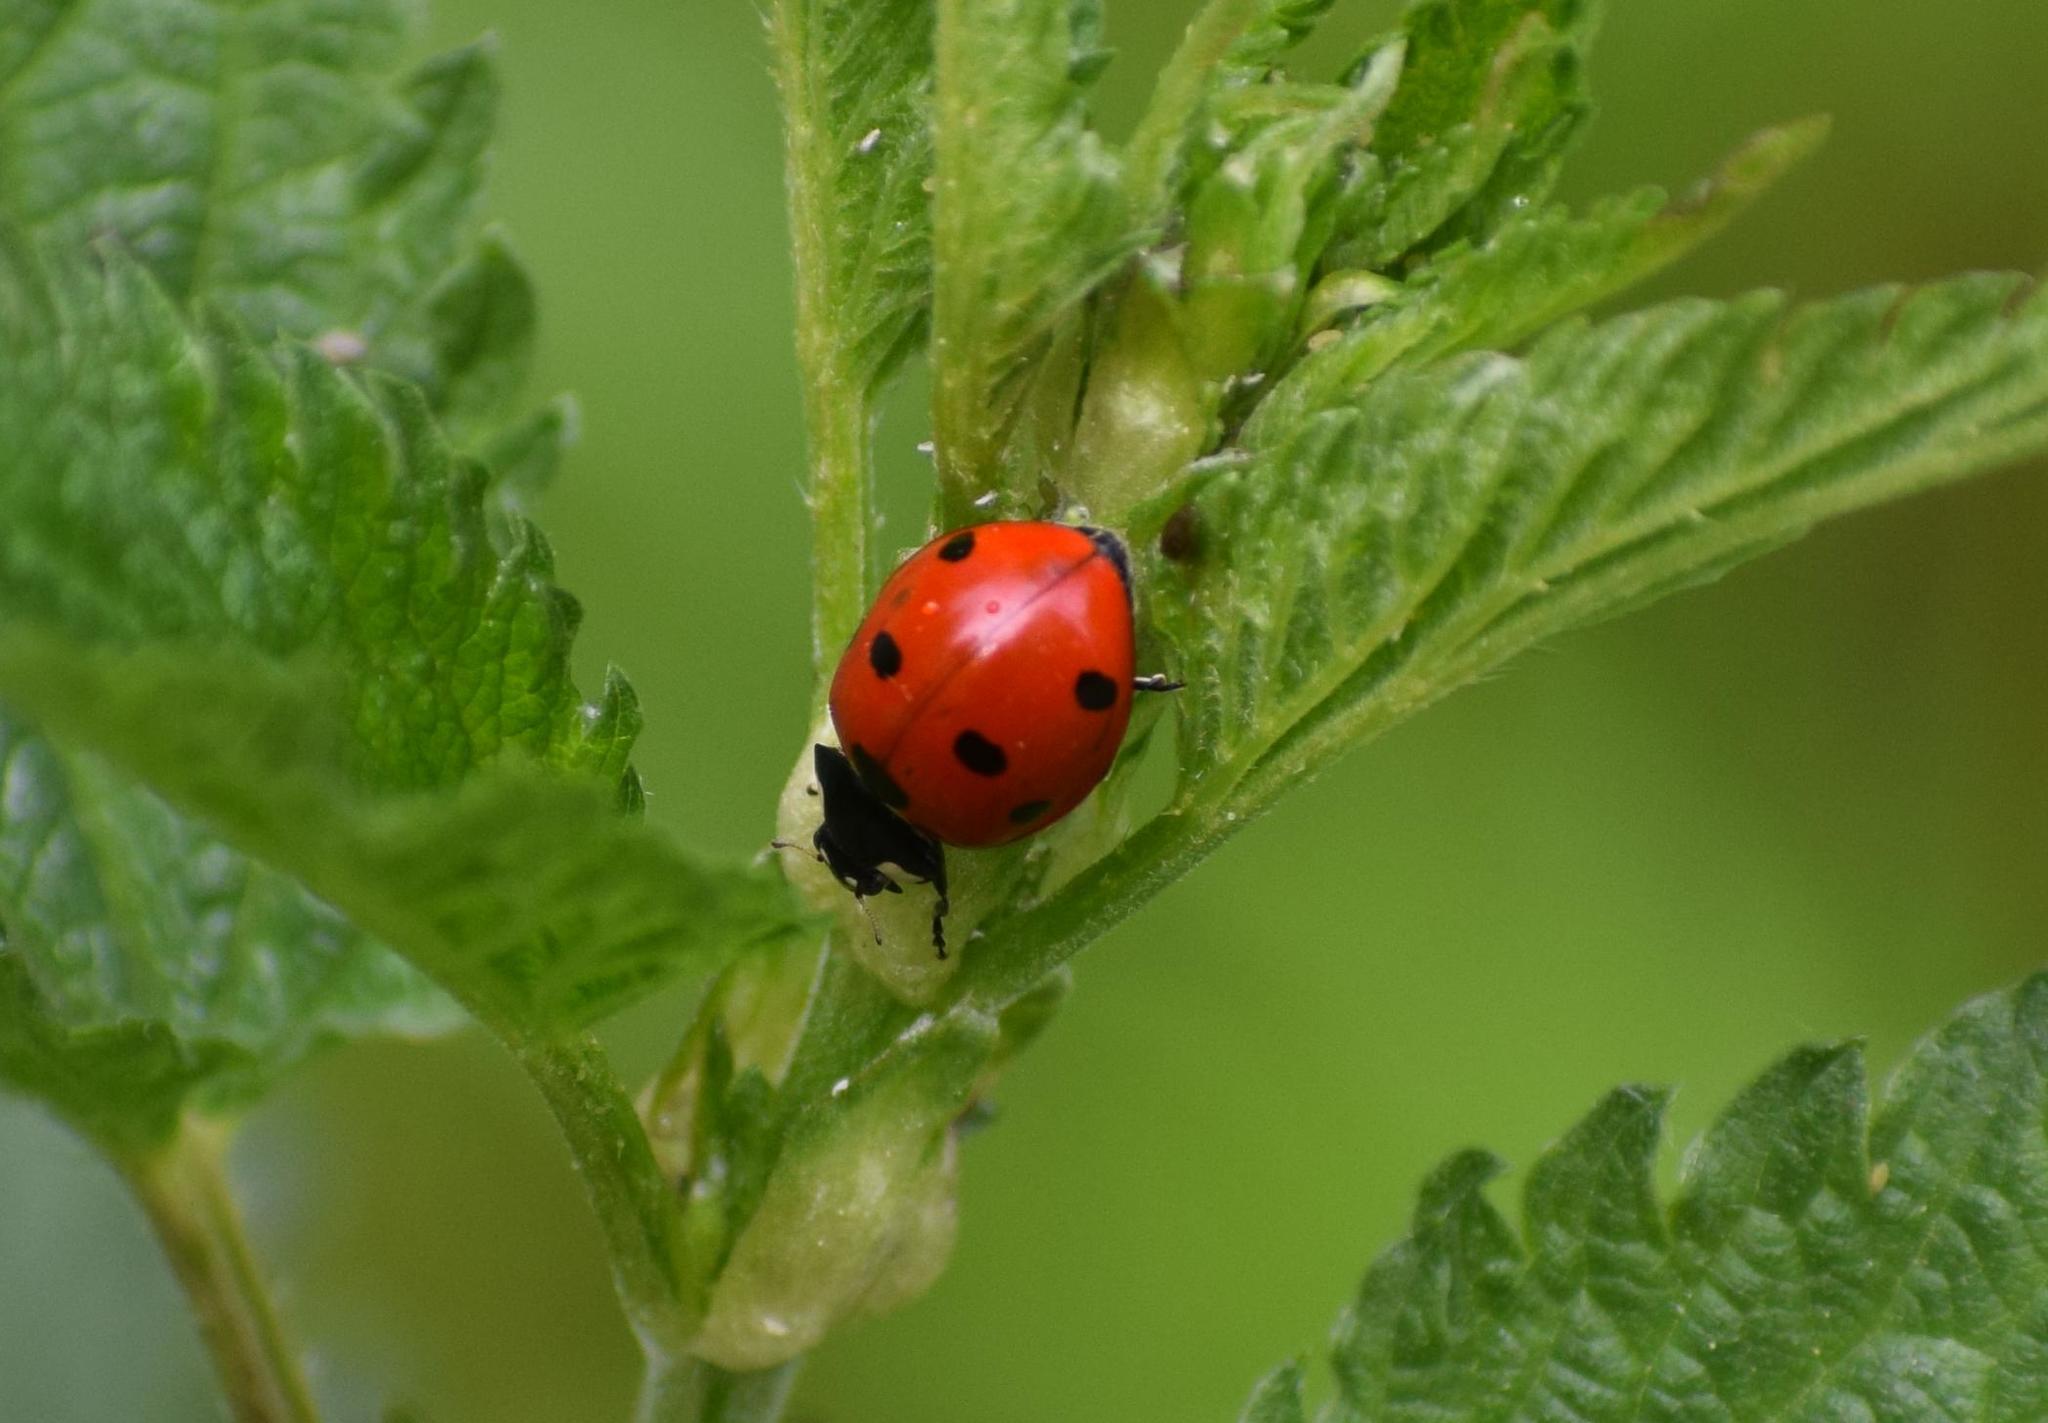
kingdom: Animalia
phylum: Arthropoda
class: Insecta
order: Coleoptera
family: Coccinellidae
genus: Coccinella
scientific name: Coccinella septempunctata
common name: Sevenspotted lady beetle
